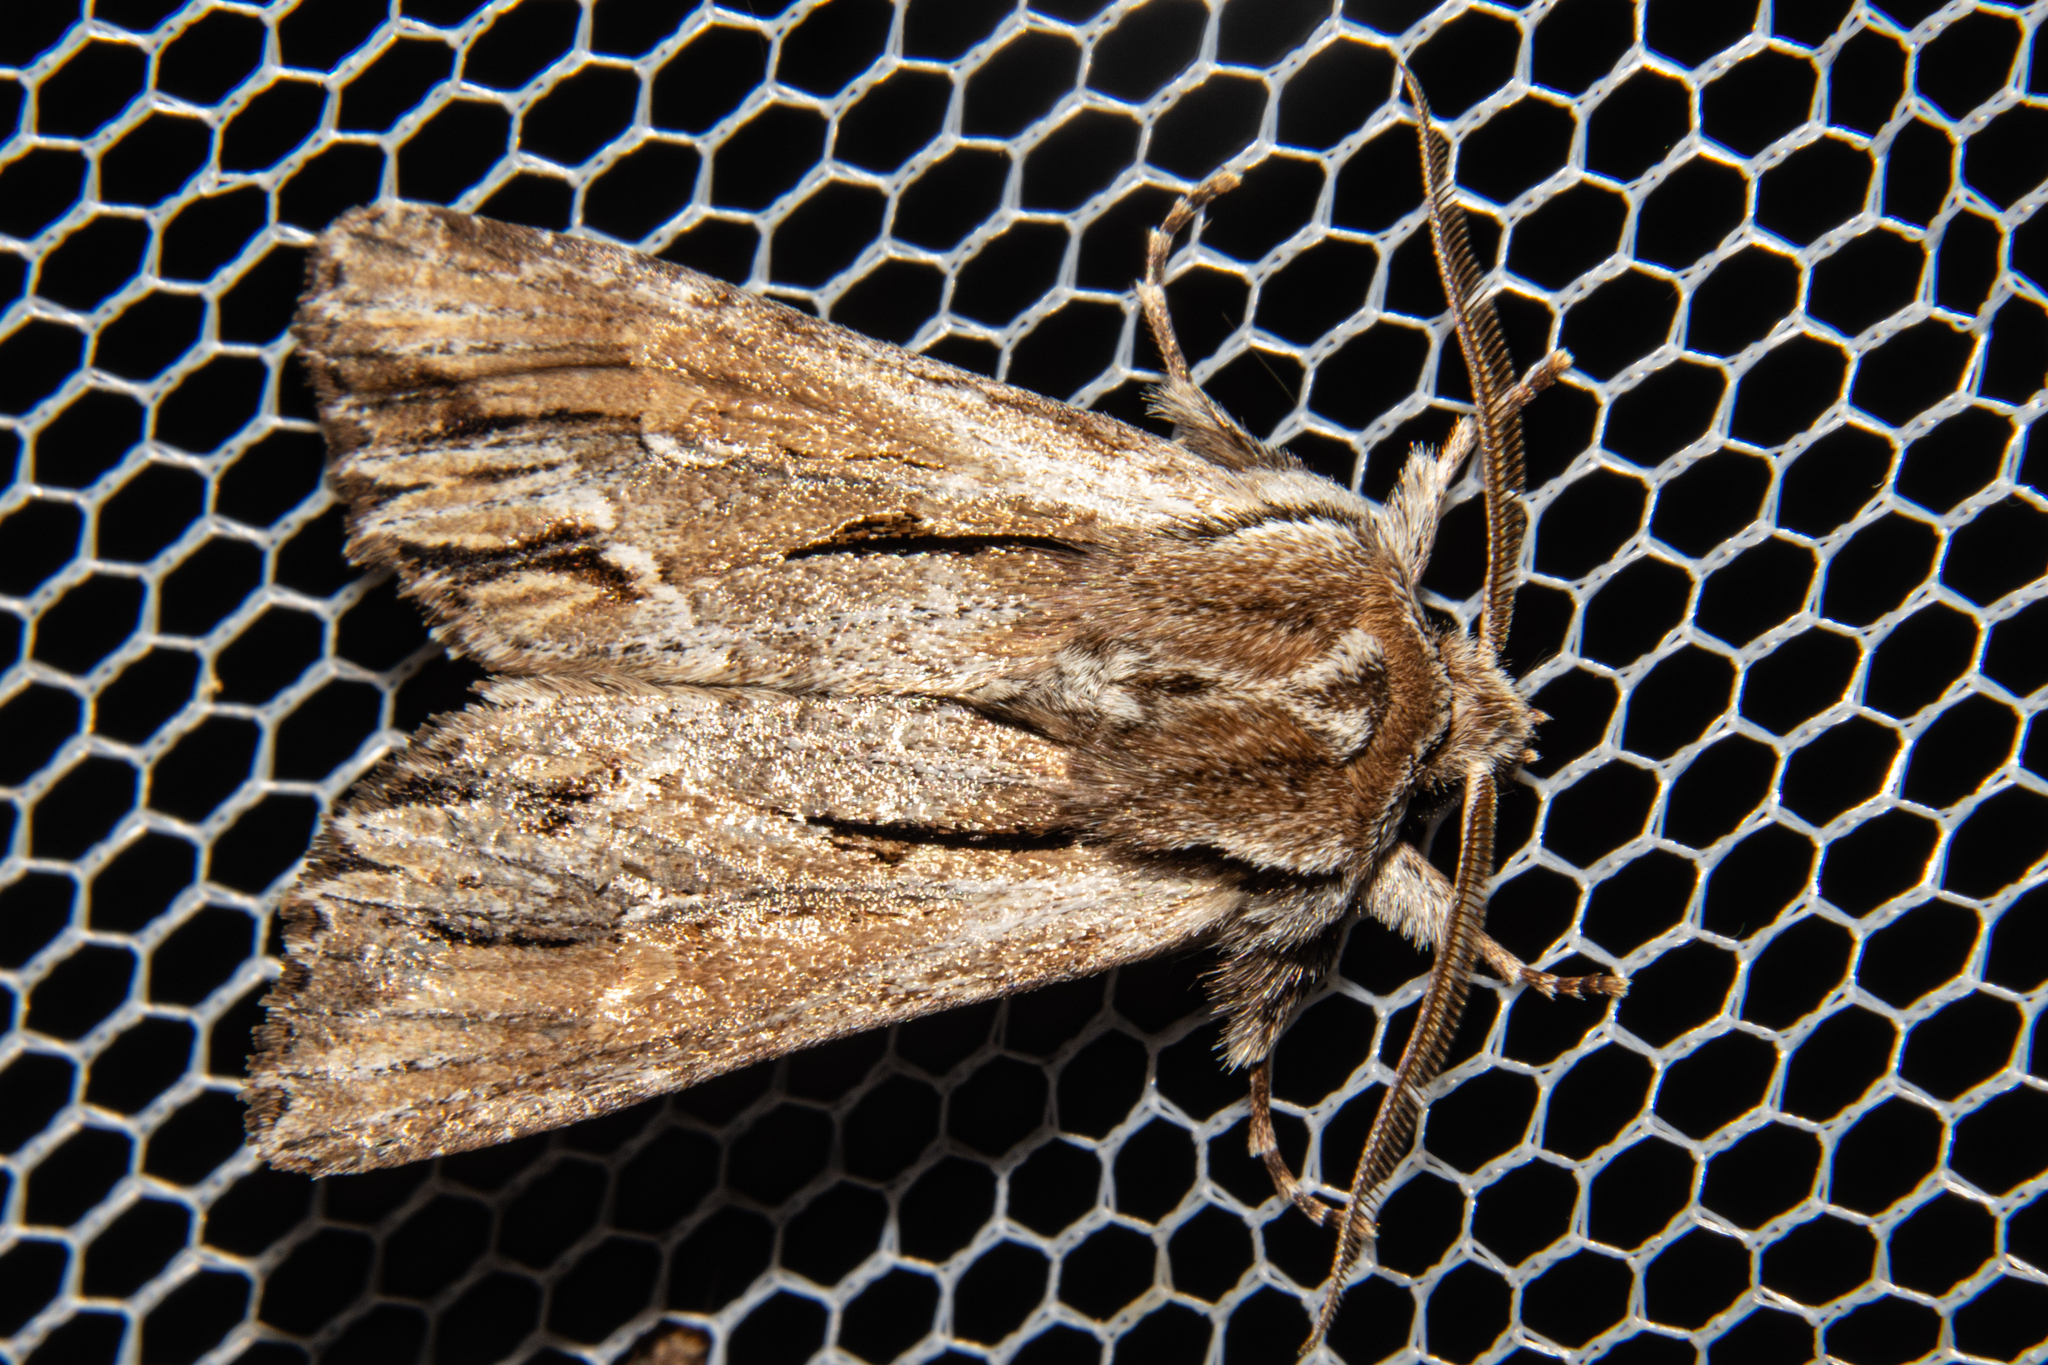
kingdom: Animalia
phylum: Arthropoda
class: Insecta
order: Lepidoptera
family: Noctuidae
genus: Ichneutica
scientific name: Ichneutica
